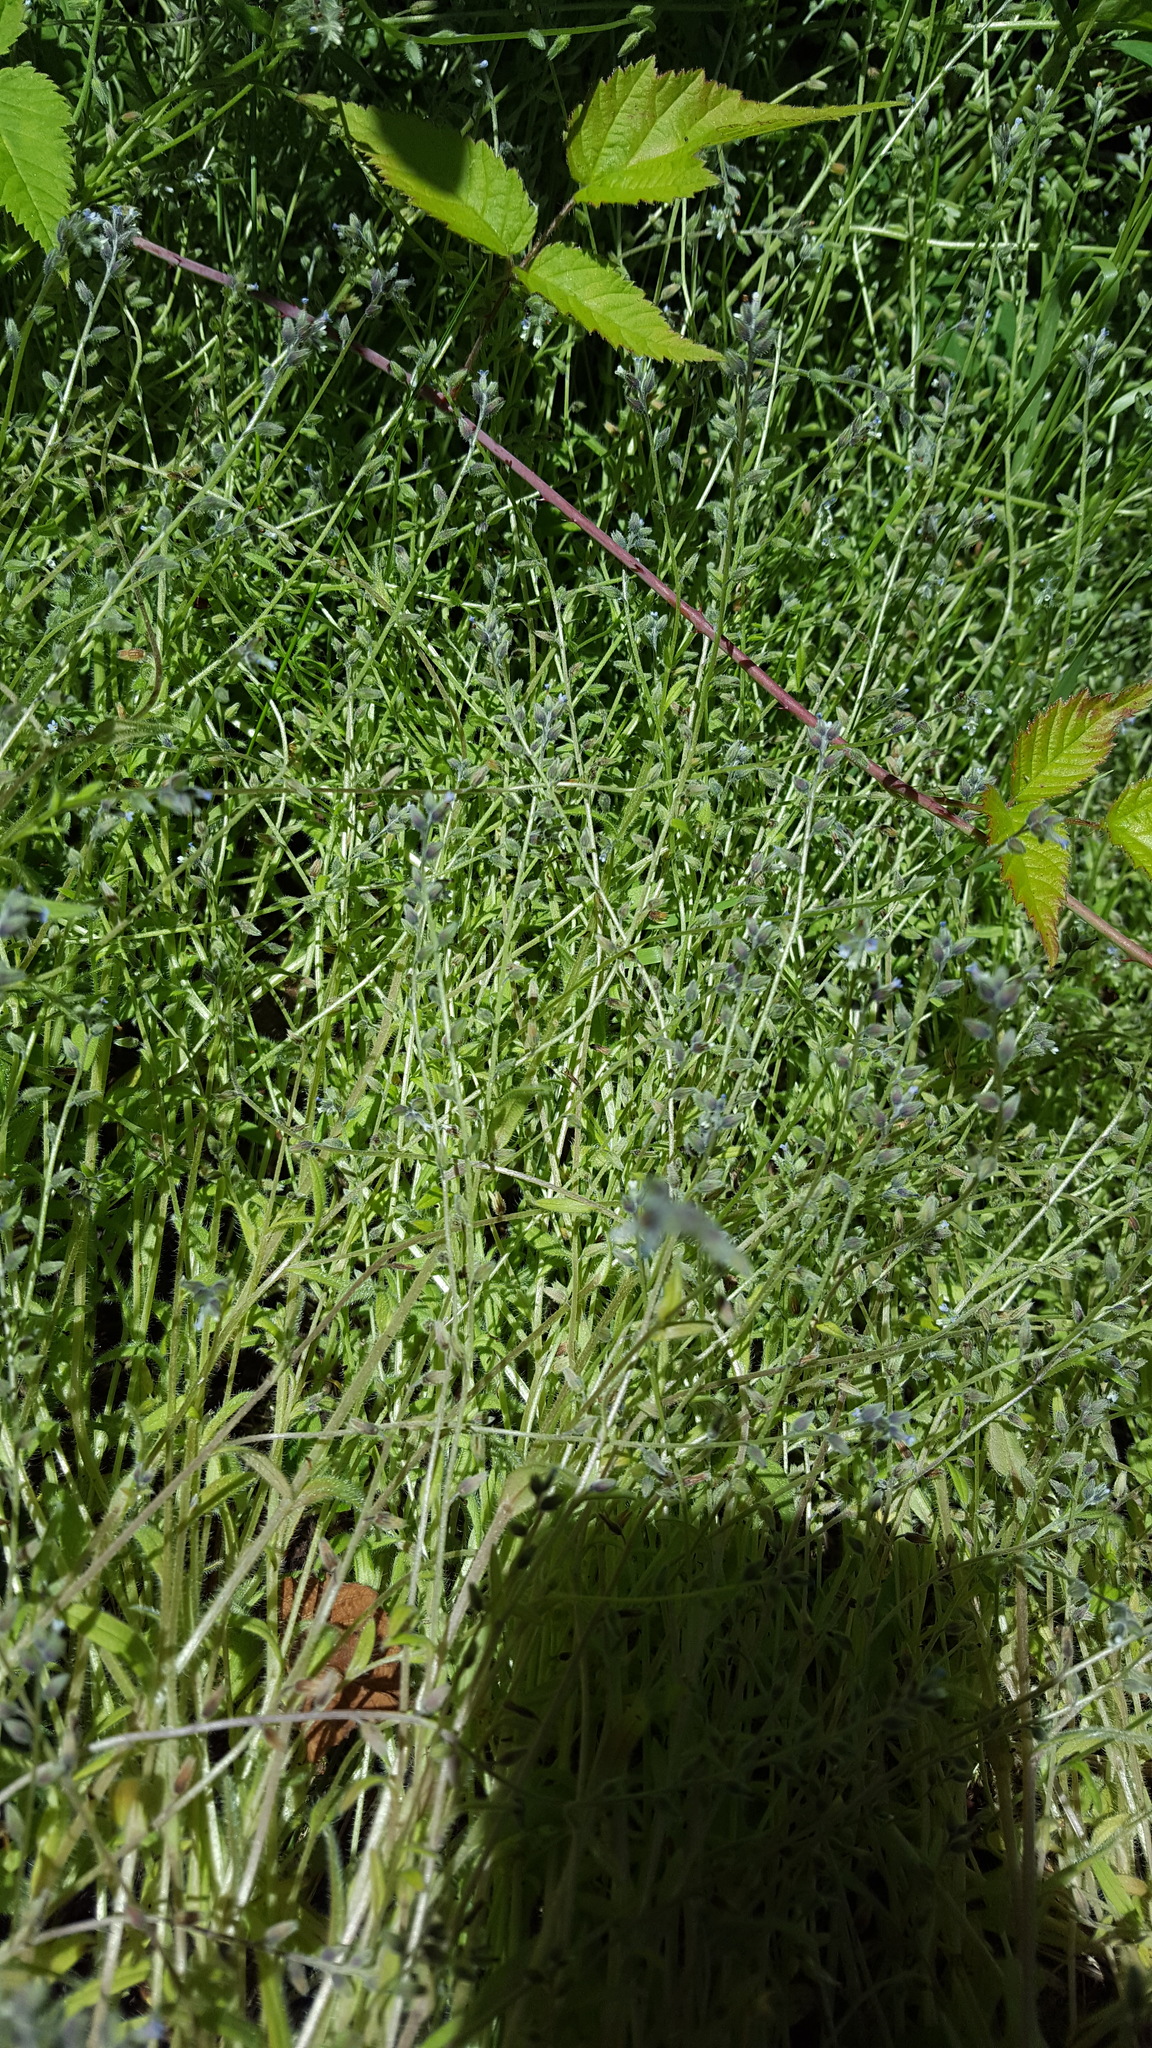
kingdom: Plantae
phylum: Tracheophyta
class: Magnoliopsida
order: Boraginales
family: Boraginaceae
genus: Myosotis
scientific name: Myosotis discolor
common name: Changing forget-me-not
